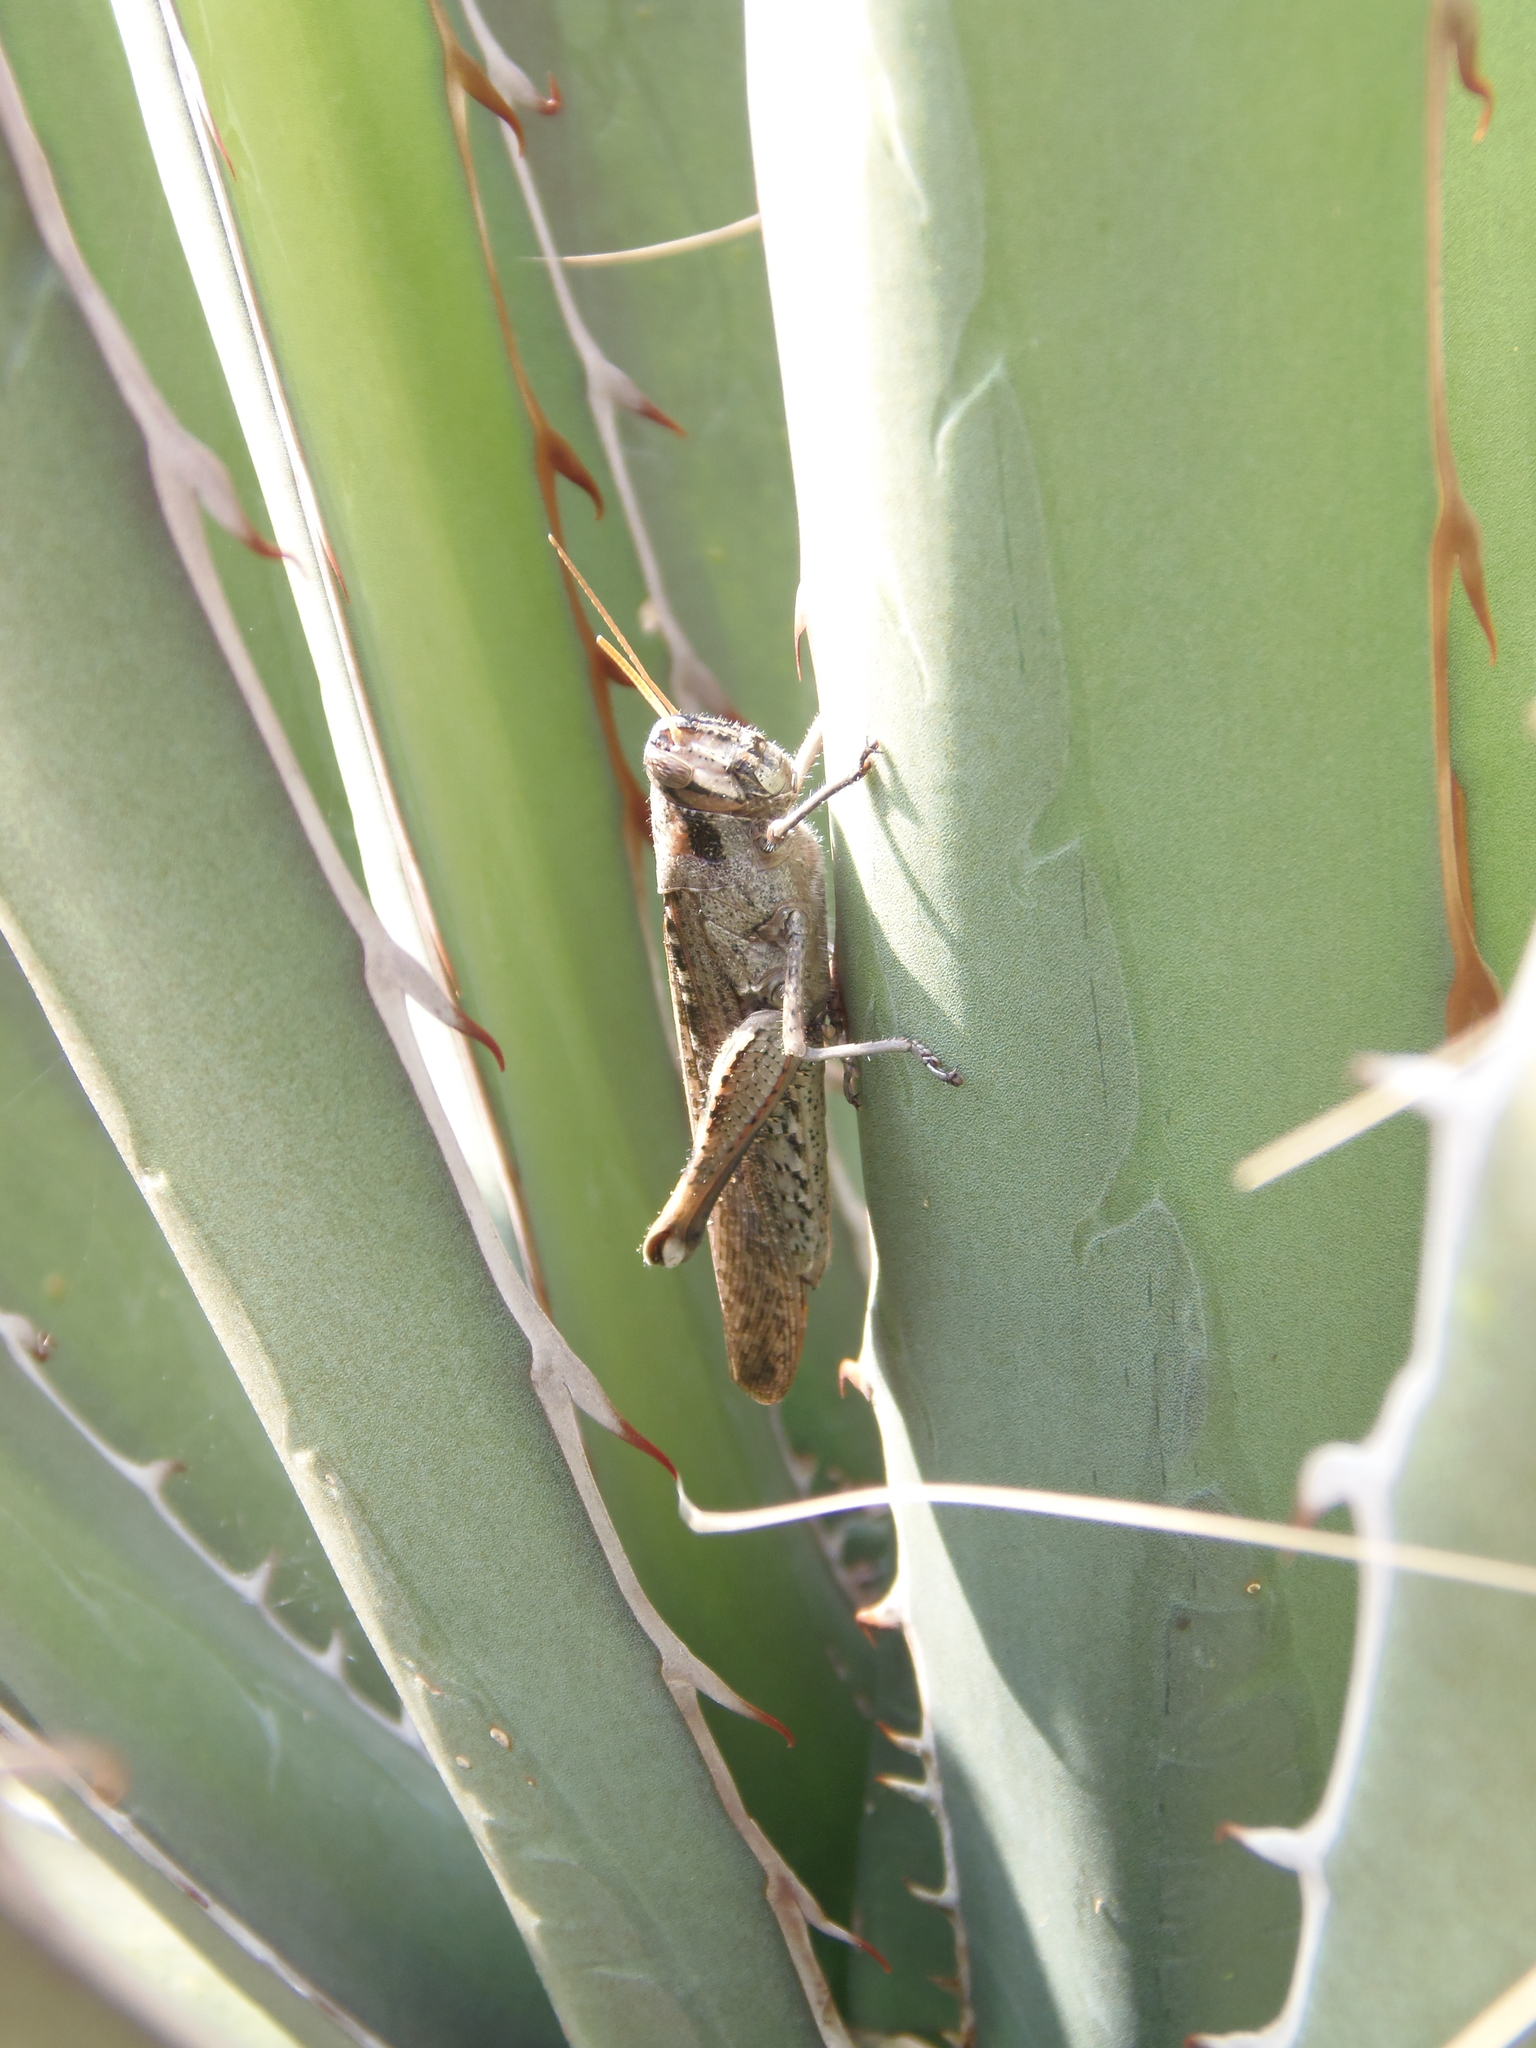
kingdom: Animalia
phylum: Arthropoda
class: Insecta
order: Orthoptera
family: Acrididae
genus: Schistocerca
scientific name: Schistocerca nitens
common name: Vagrant grasshopper
